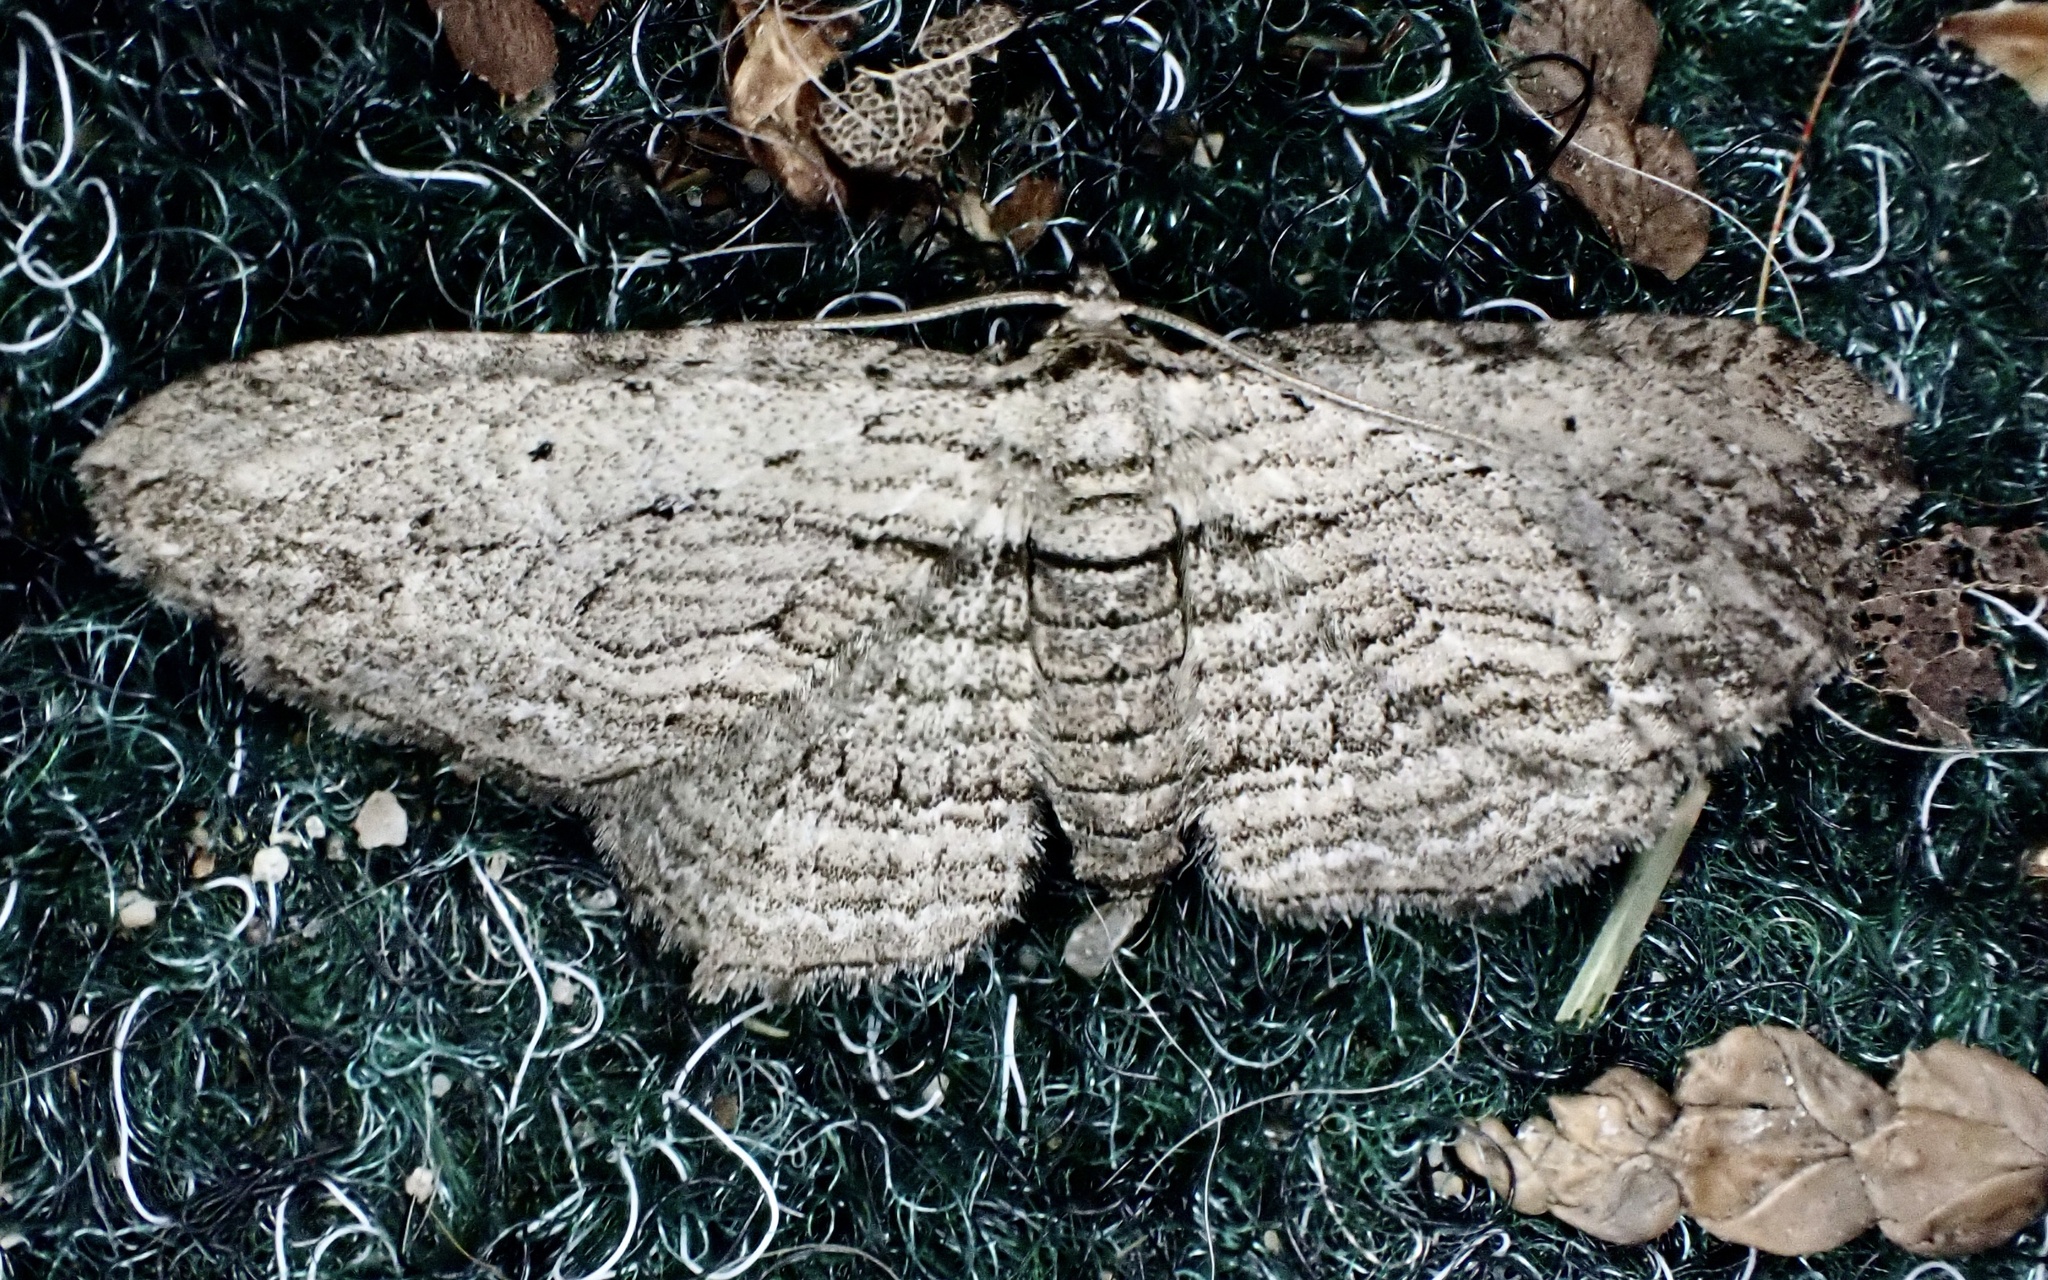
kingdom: Animalia
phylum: Arthropoda
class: Insecta
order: Lepidoptera
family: Geometridae
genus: Horisme
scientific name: Horisme intestinata
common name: Brown bark carpet
